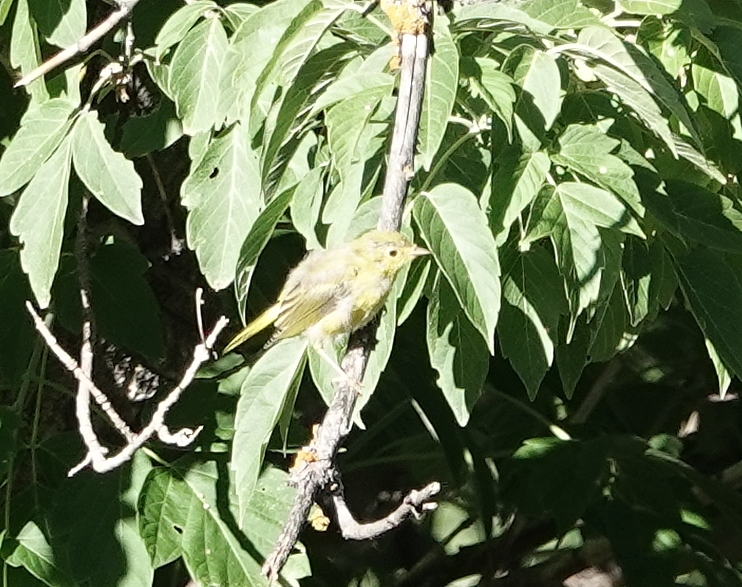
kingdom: Animalia
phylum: Chordata
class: Aves
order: Passeriformes
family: Parulidae
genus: Setophaga
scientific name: Setophaga petechia
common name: Yellow warbler
